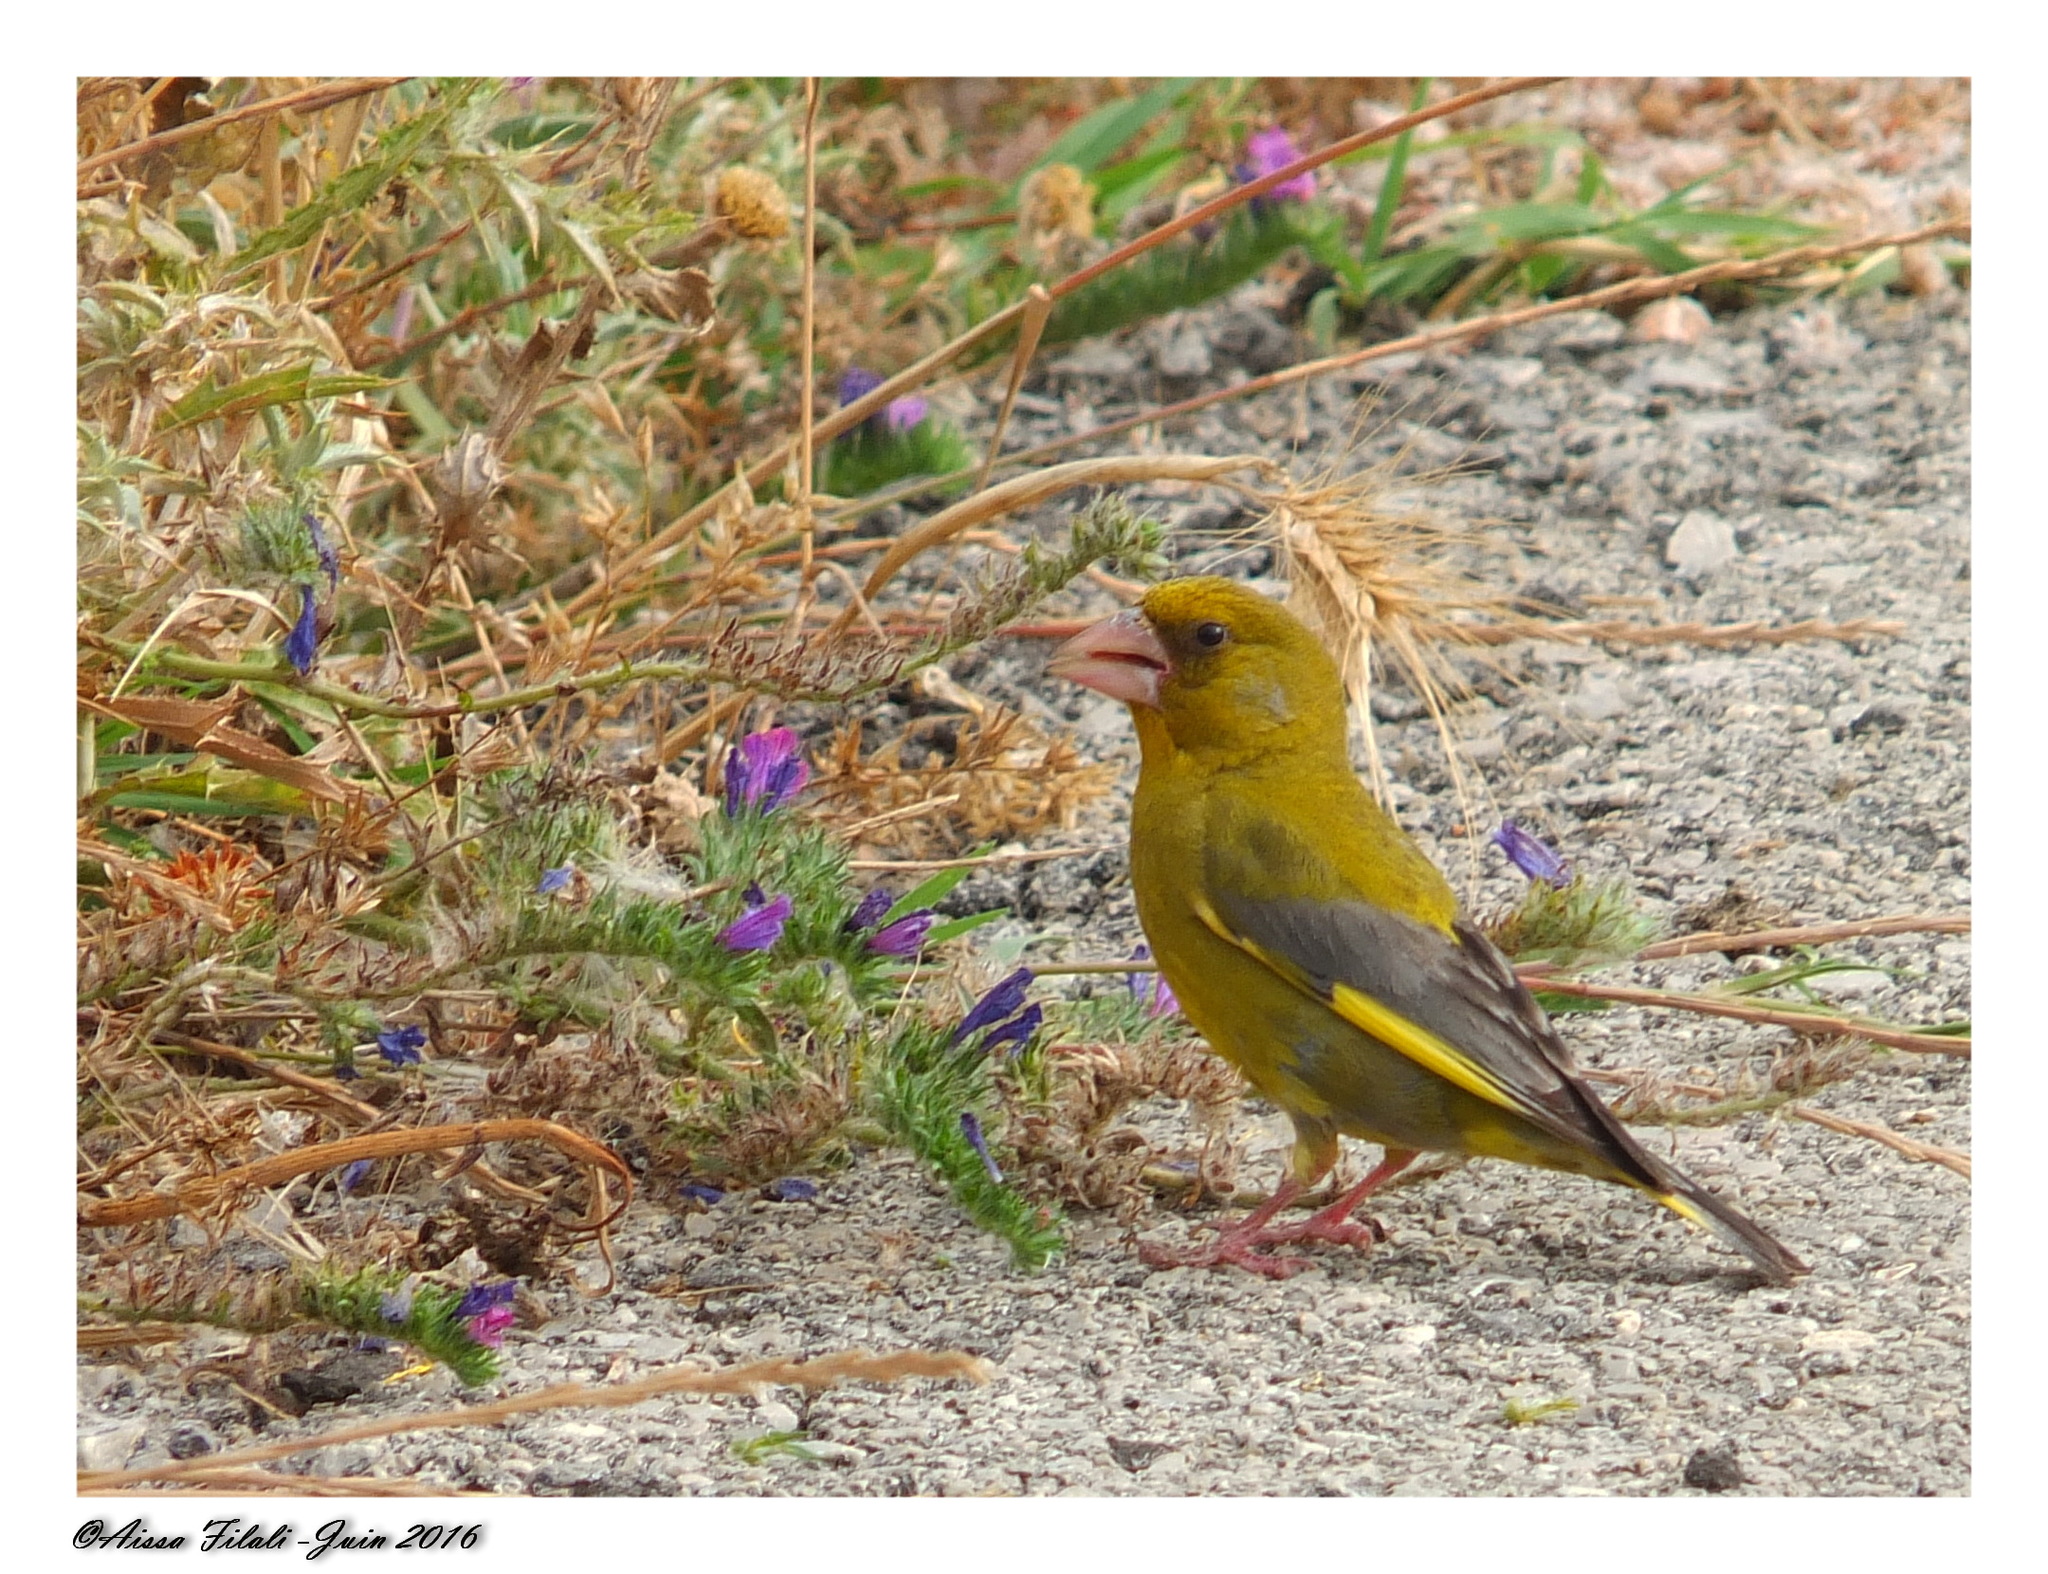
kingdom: Plantae
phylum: Tracheophyta
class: Liliopsida
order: Poales
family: Poaceae
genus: Chloris
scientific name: Chloris chloris
